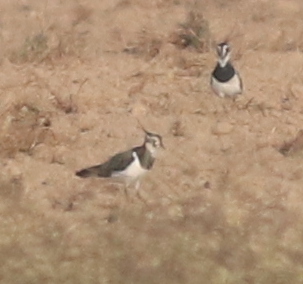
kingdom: Animalia
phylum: Chordata
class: Aves
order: Charadriiformes
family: Charadriidae
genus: Vanellus
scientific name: Vanellus vanellus
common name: Northern lapwing
